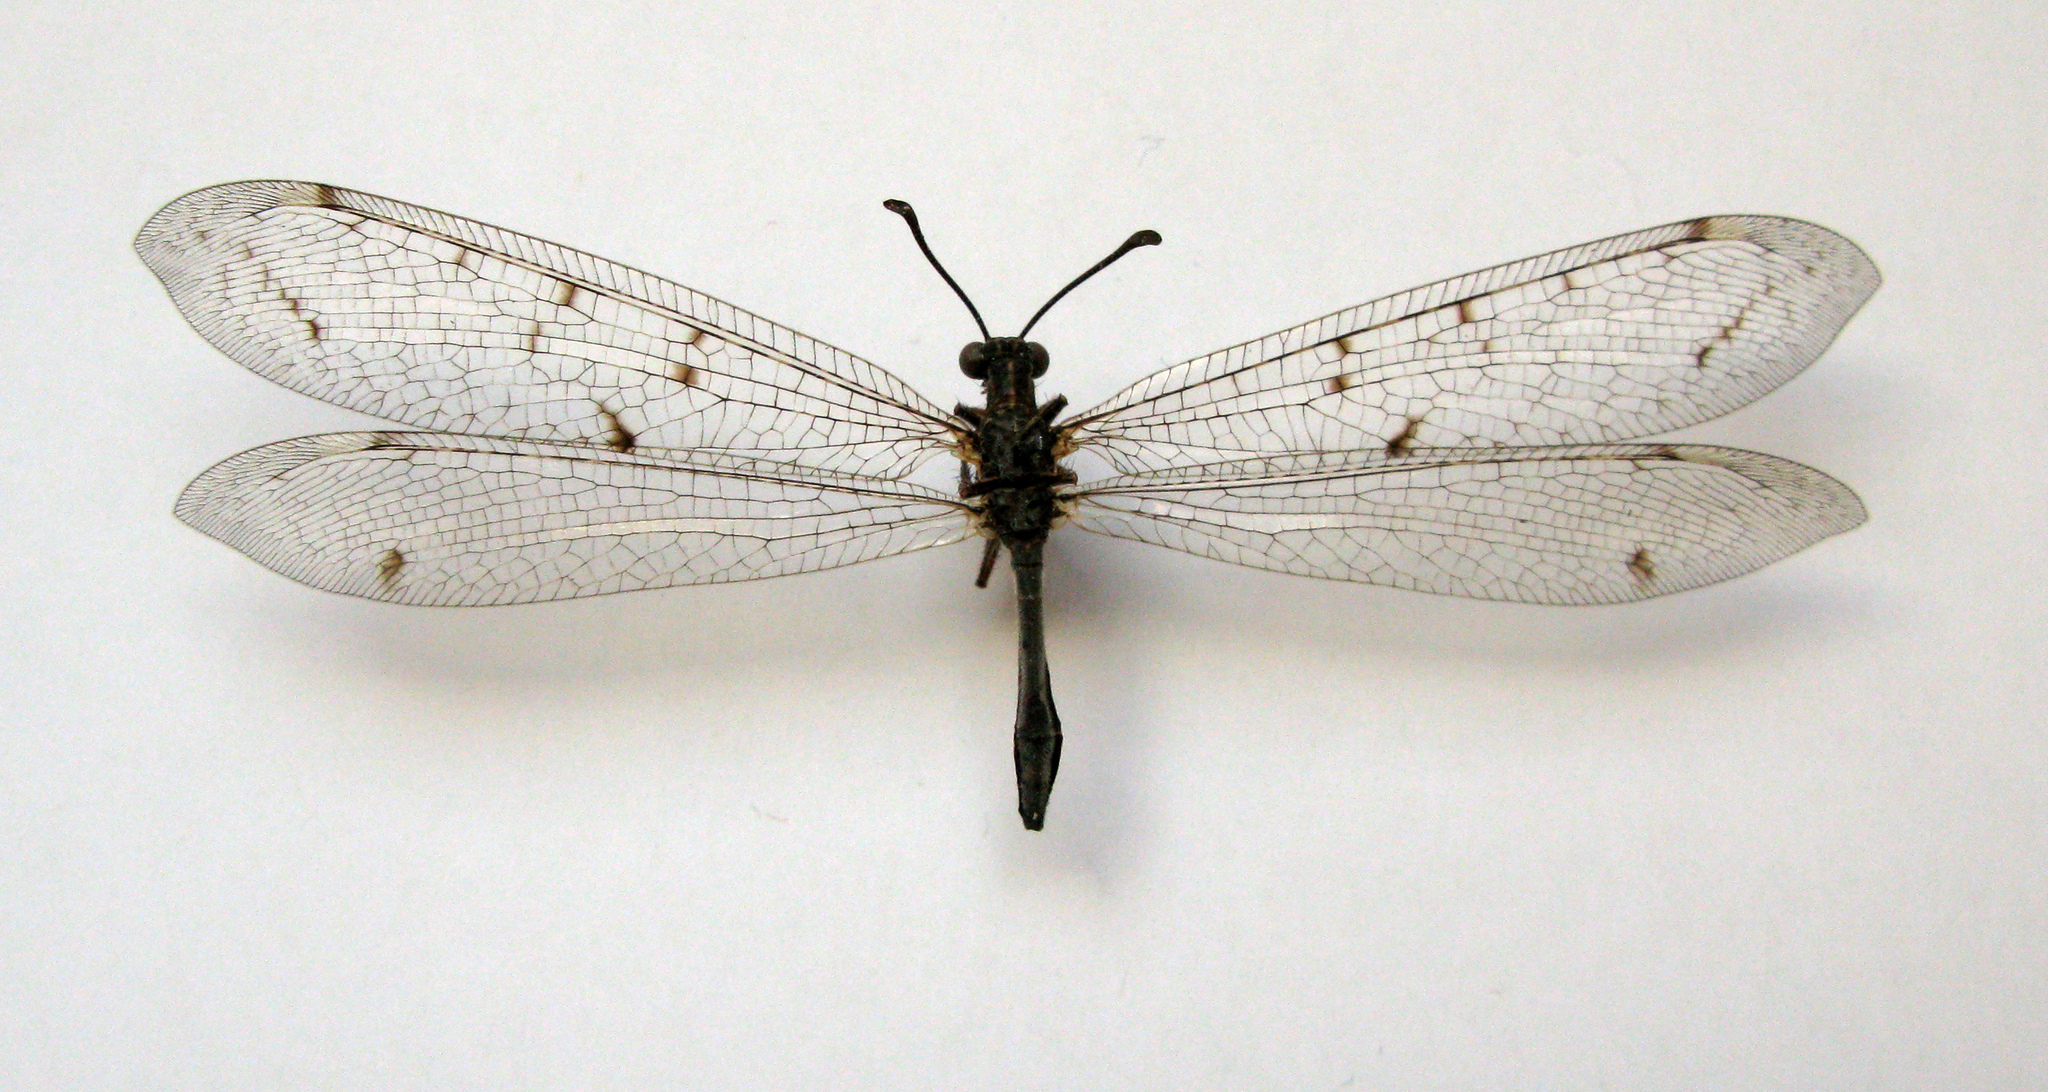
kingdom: Animalia
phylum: Arthropoda
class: Insecta
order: Neuroptera
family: Myrmeleontidae
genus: Distoleon
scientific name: Distoleon tetragrammicus
